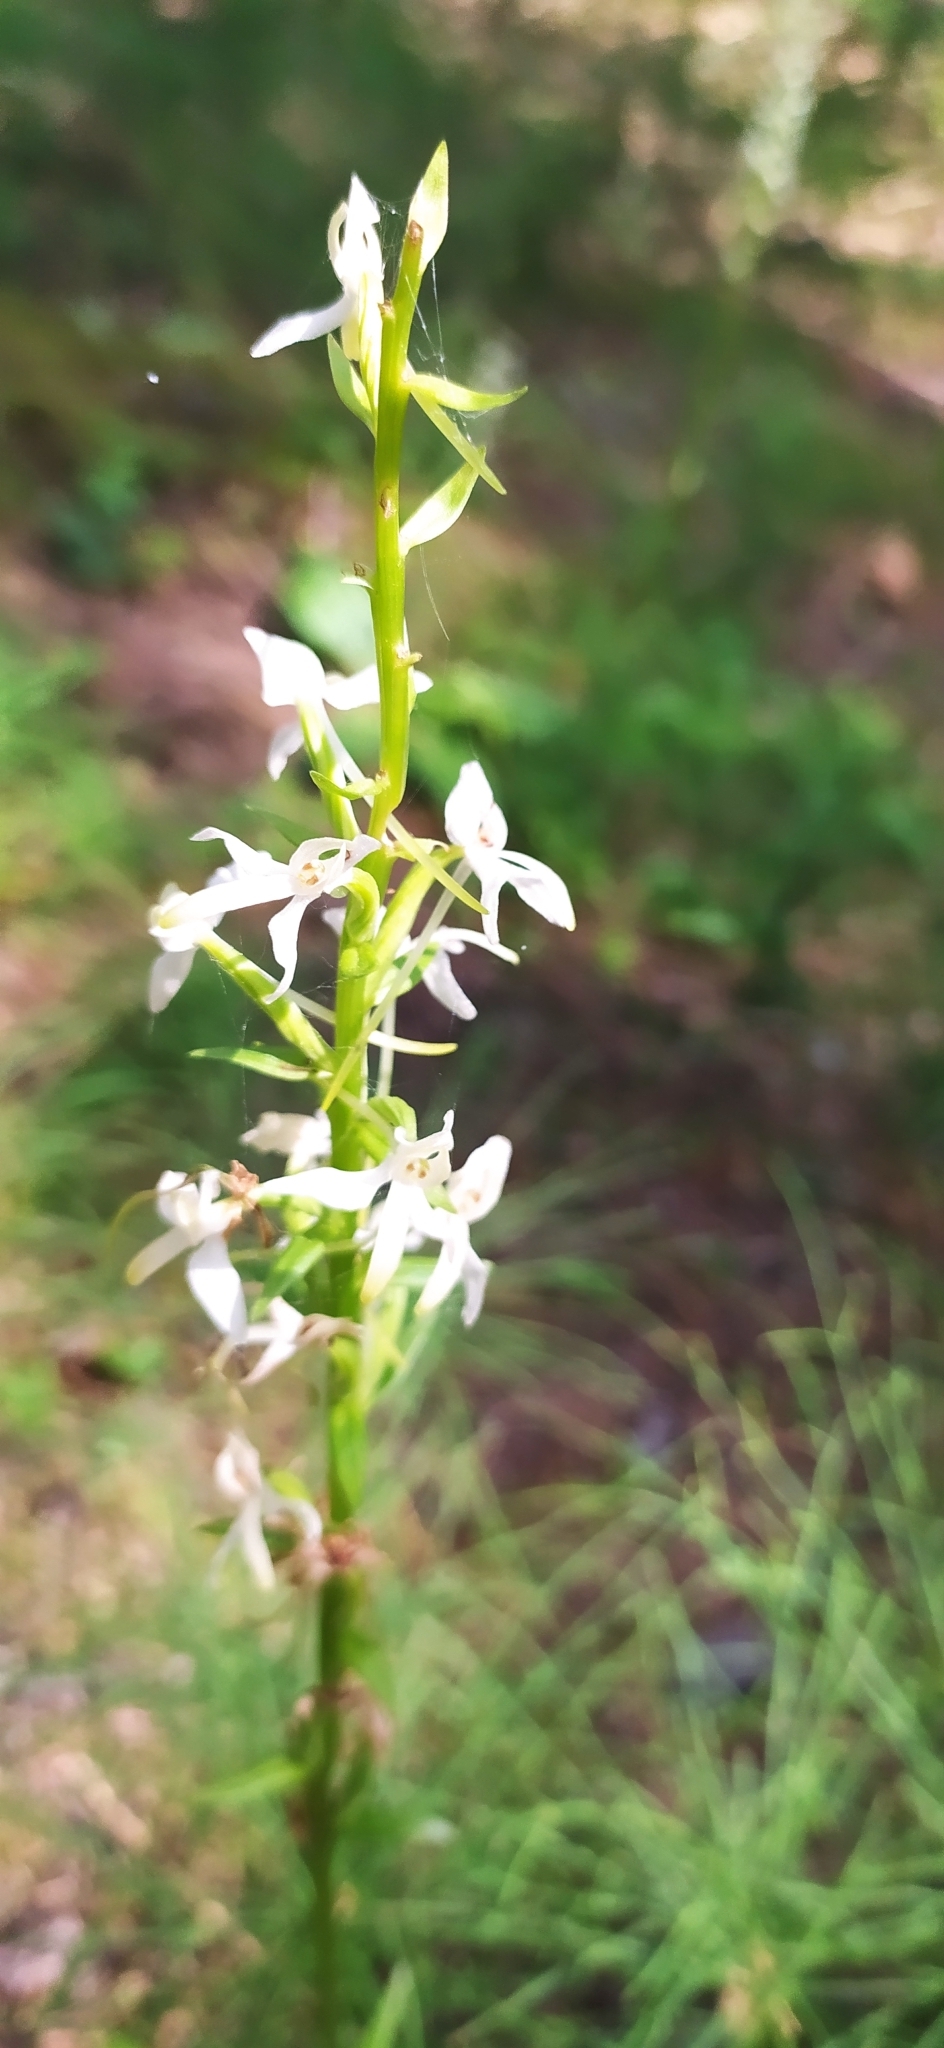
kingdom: Plantae
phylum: Tracheophyta
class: Liliopsida
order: Asparagales
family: Orchidaceae
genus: Platanthera
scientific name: Platanthera bifolia
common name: Lesser butterfly-orchid
